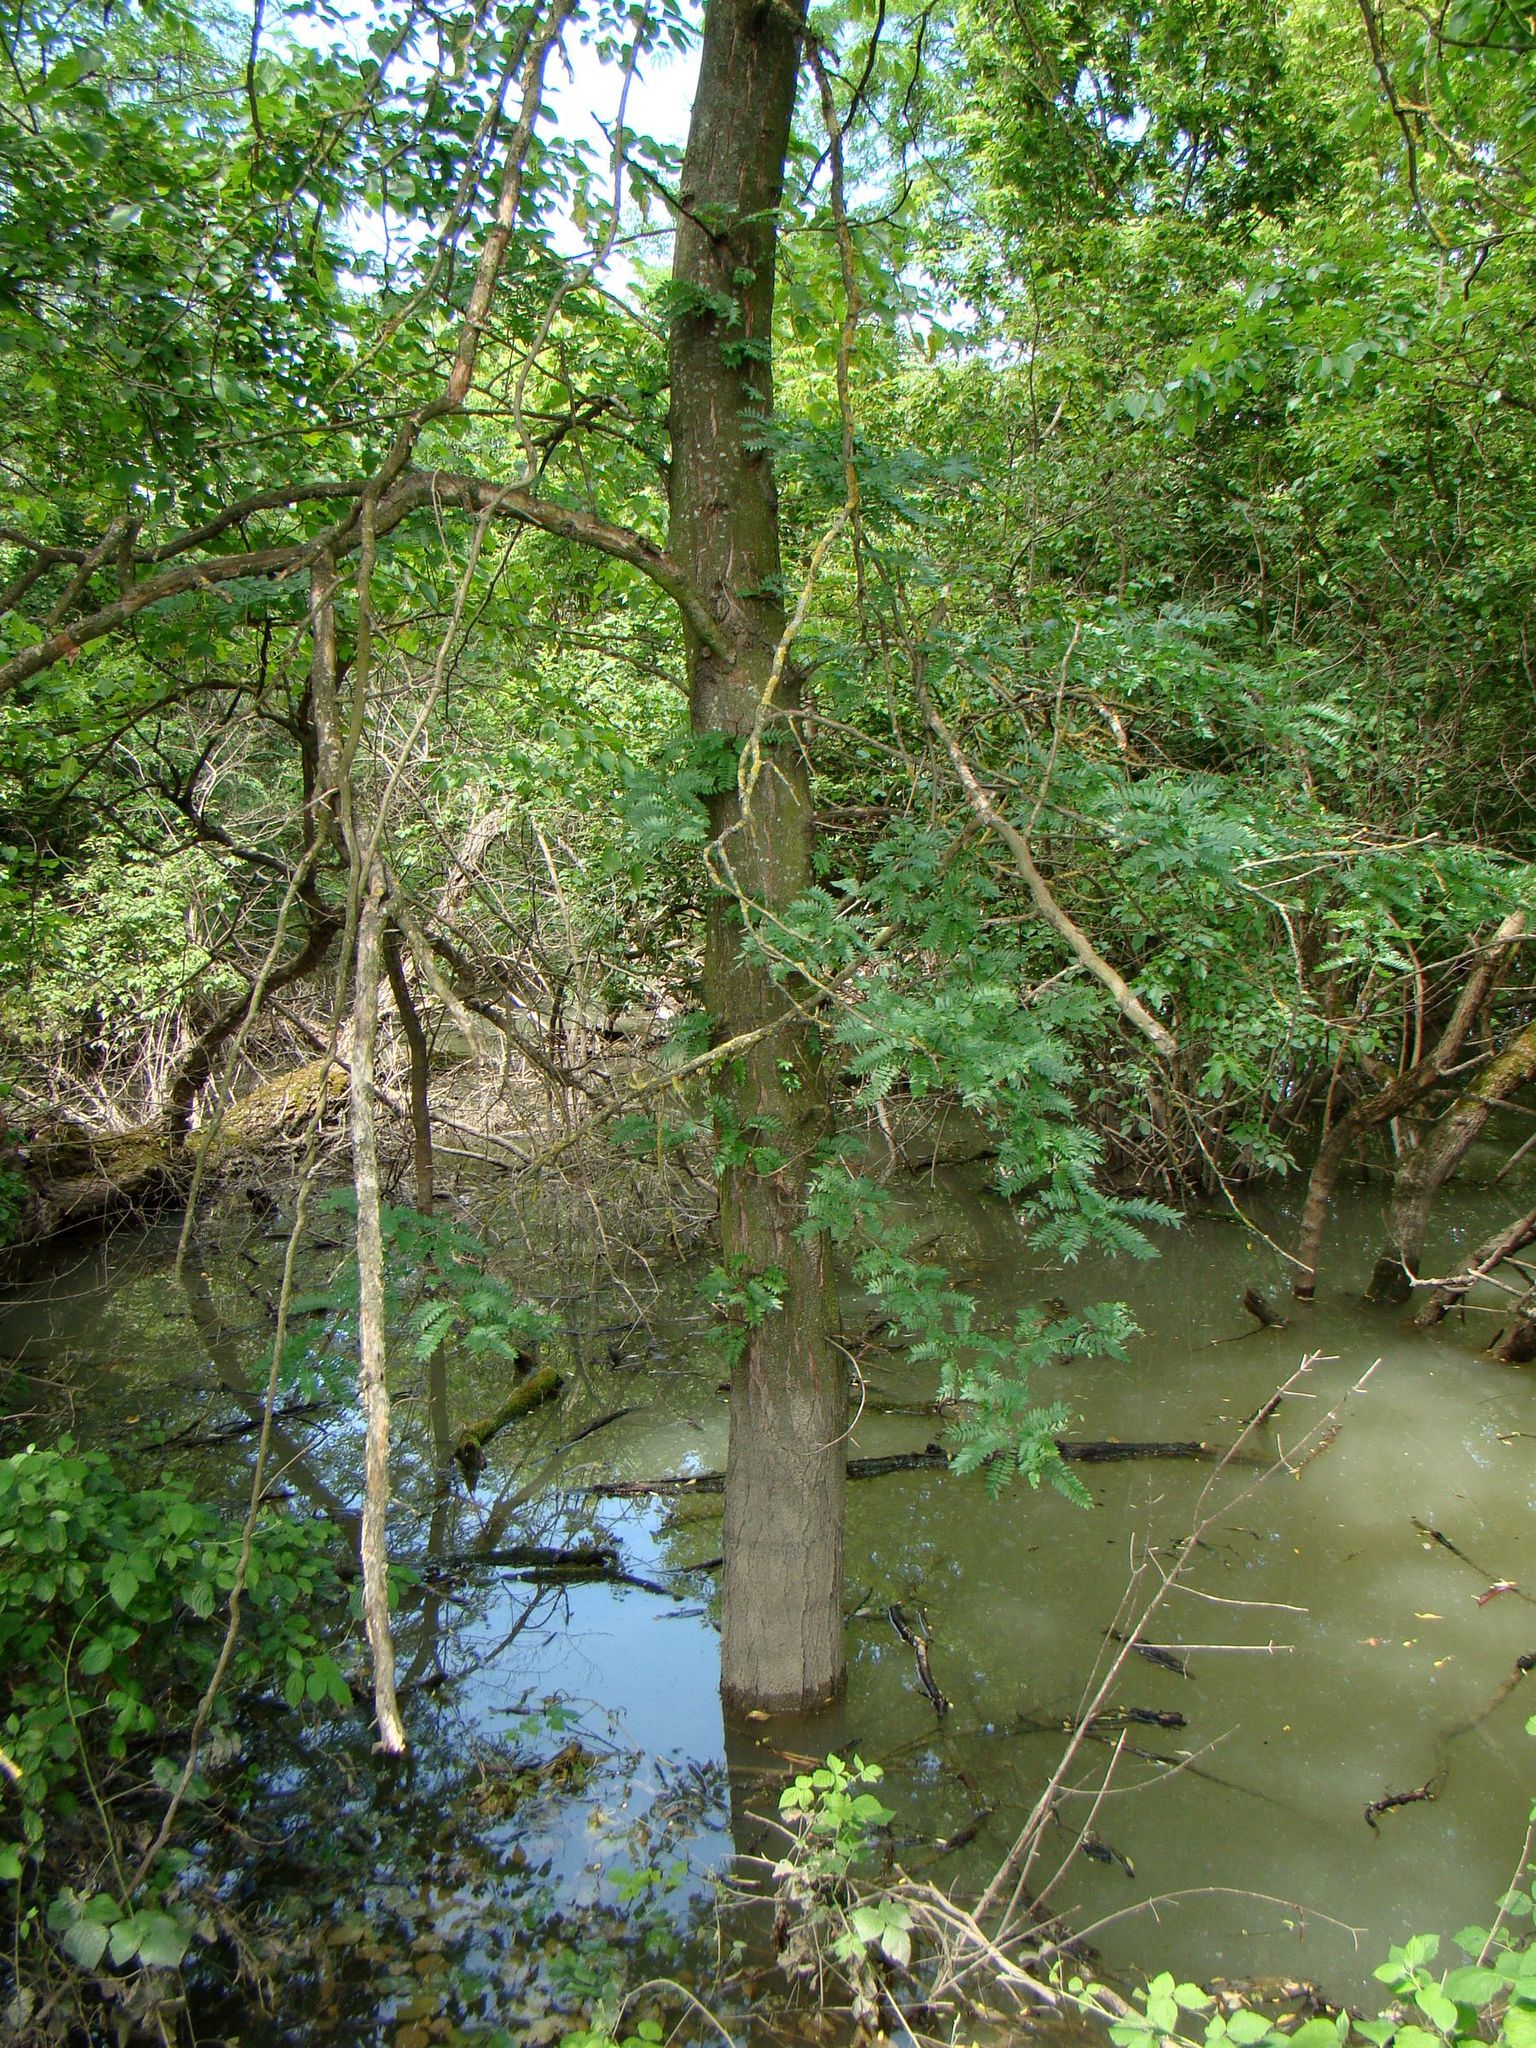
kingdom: Plantae
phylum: Tracheophyta
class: Magnoliopsida
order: Fabales
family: Fabaceae
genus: Gleditsia
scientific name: Gleditsia triacanthos
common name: Common honeylocust
